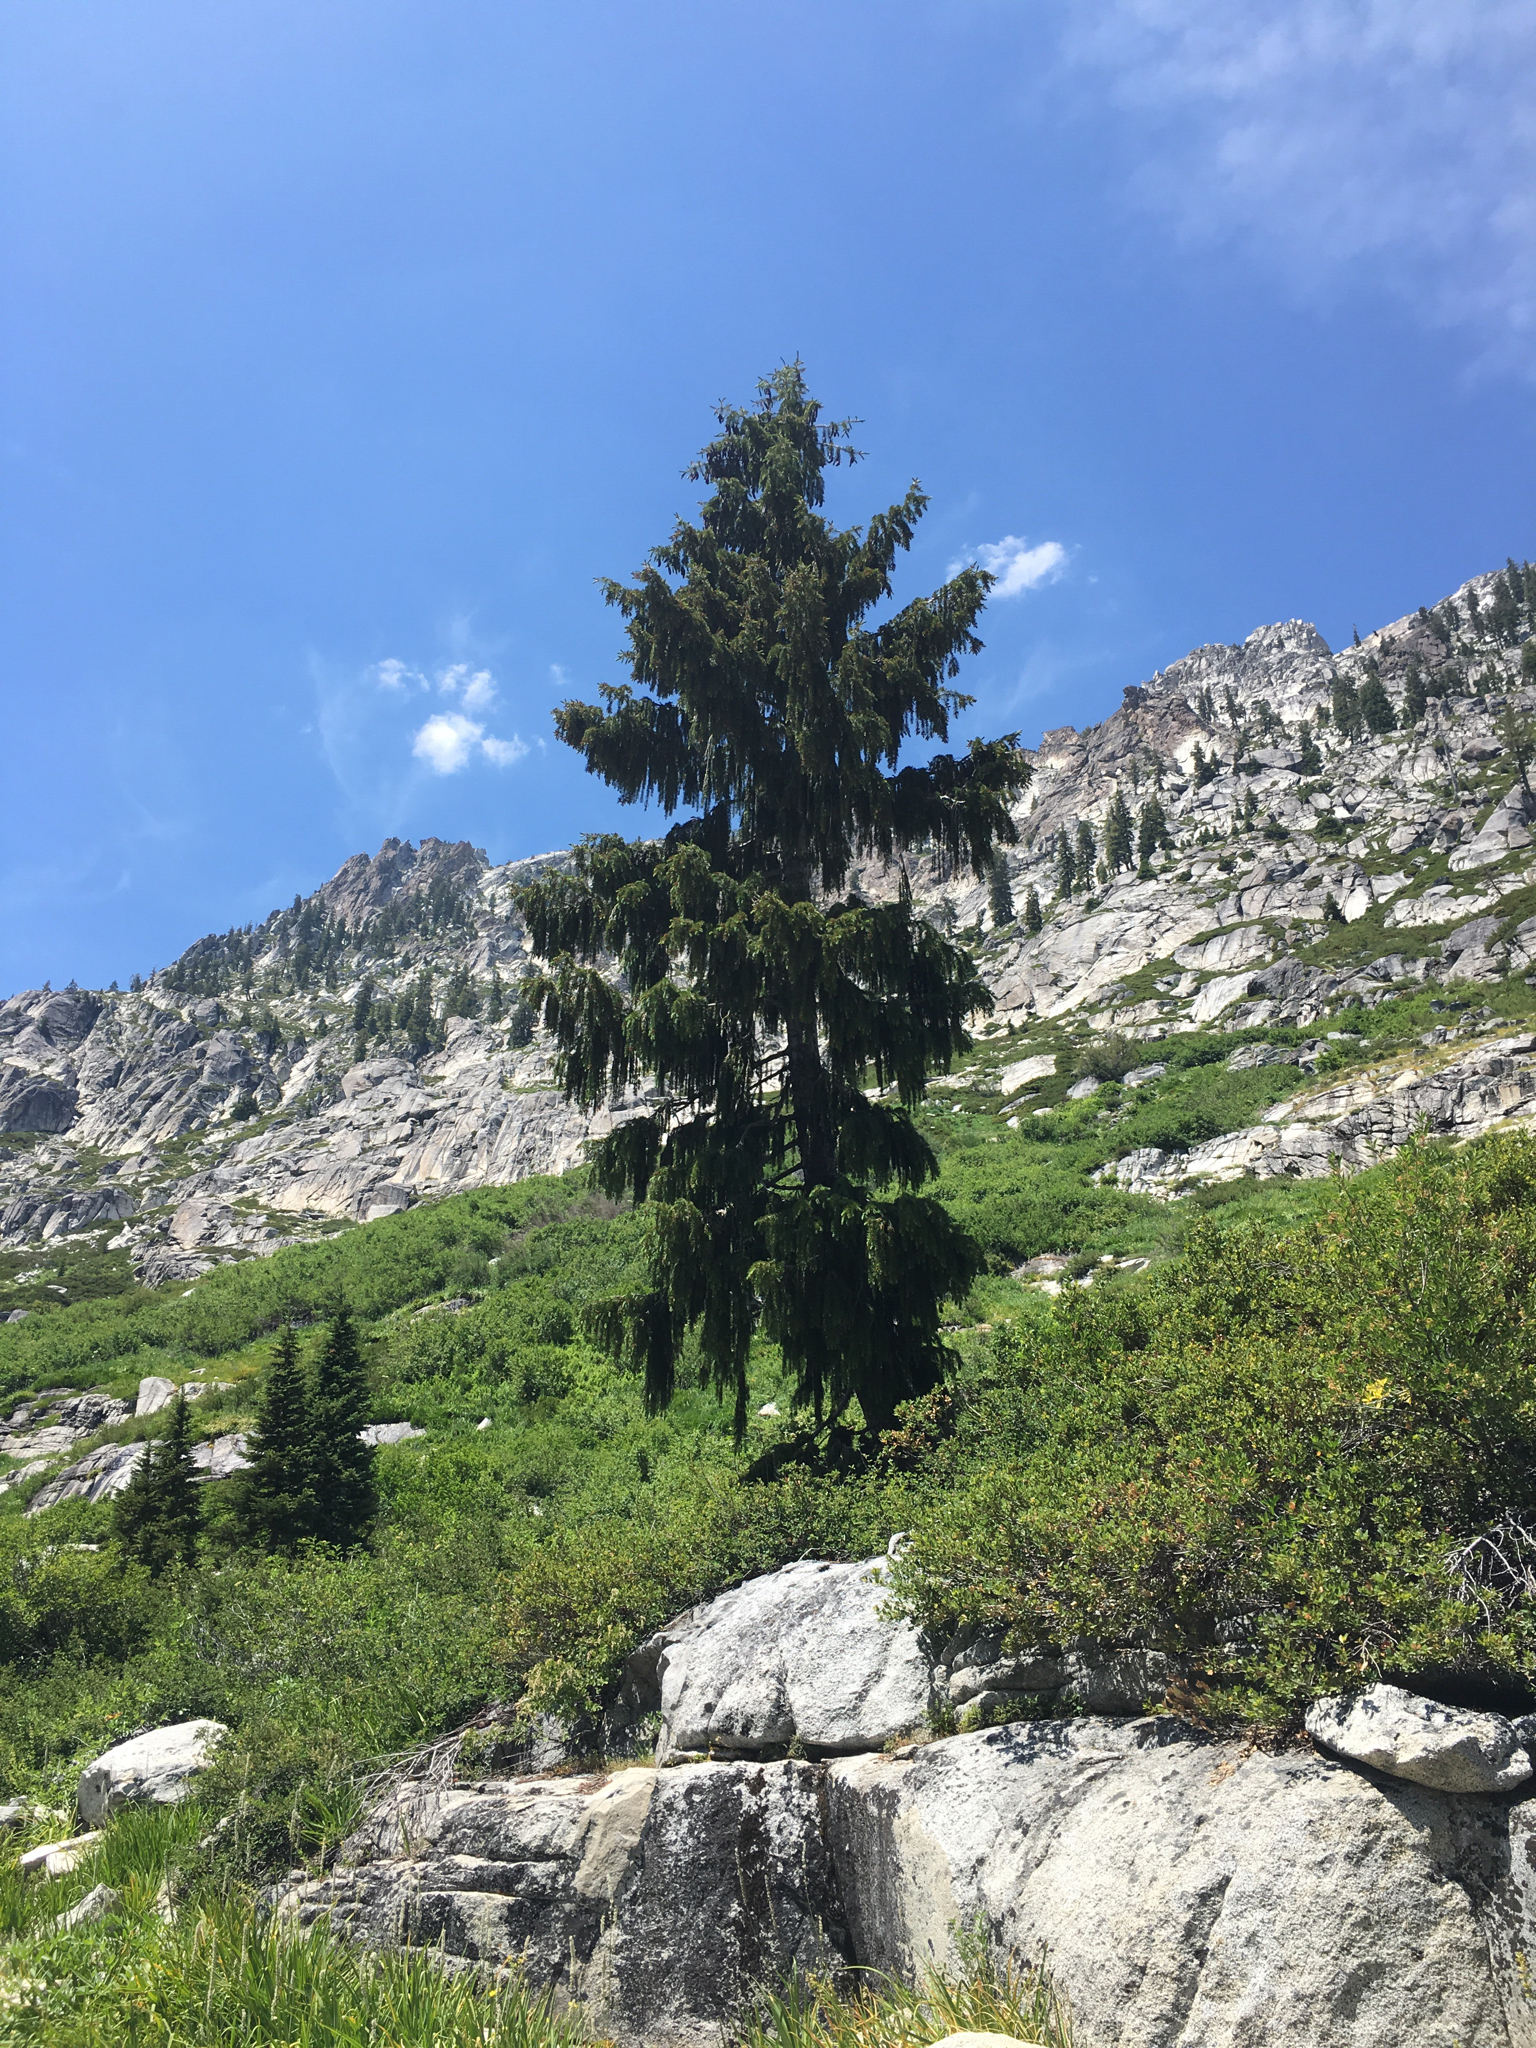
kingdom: Plantae
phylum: Tracheophyta
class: Pinopsida
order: Pinales
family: Pinaceae
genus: Picea
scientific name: Picea breweriana
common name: Brewer's spruce
